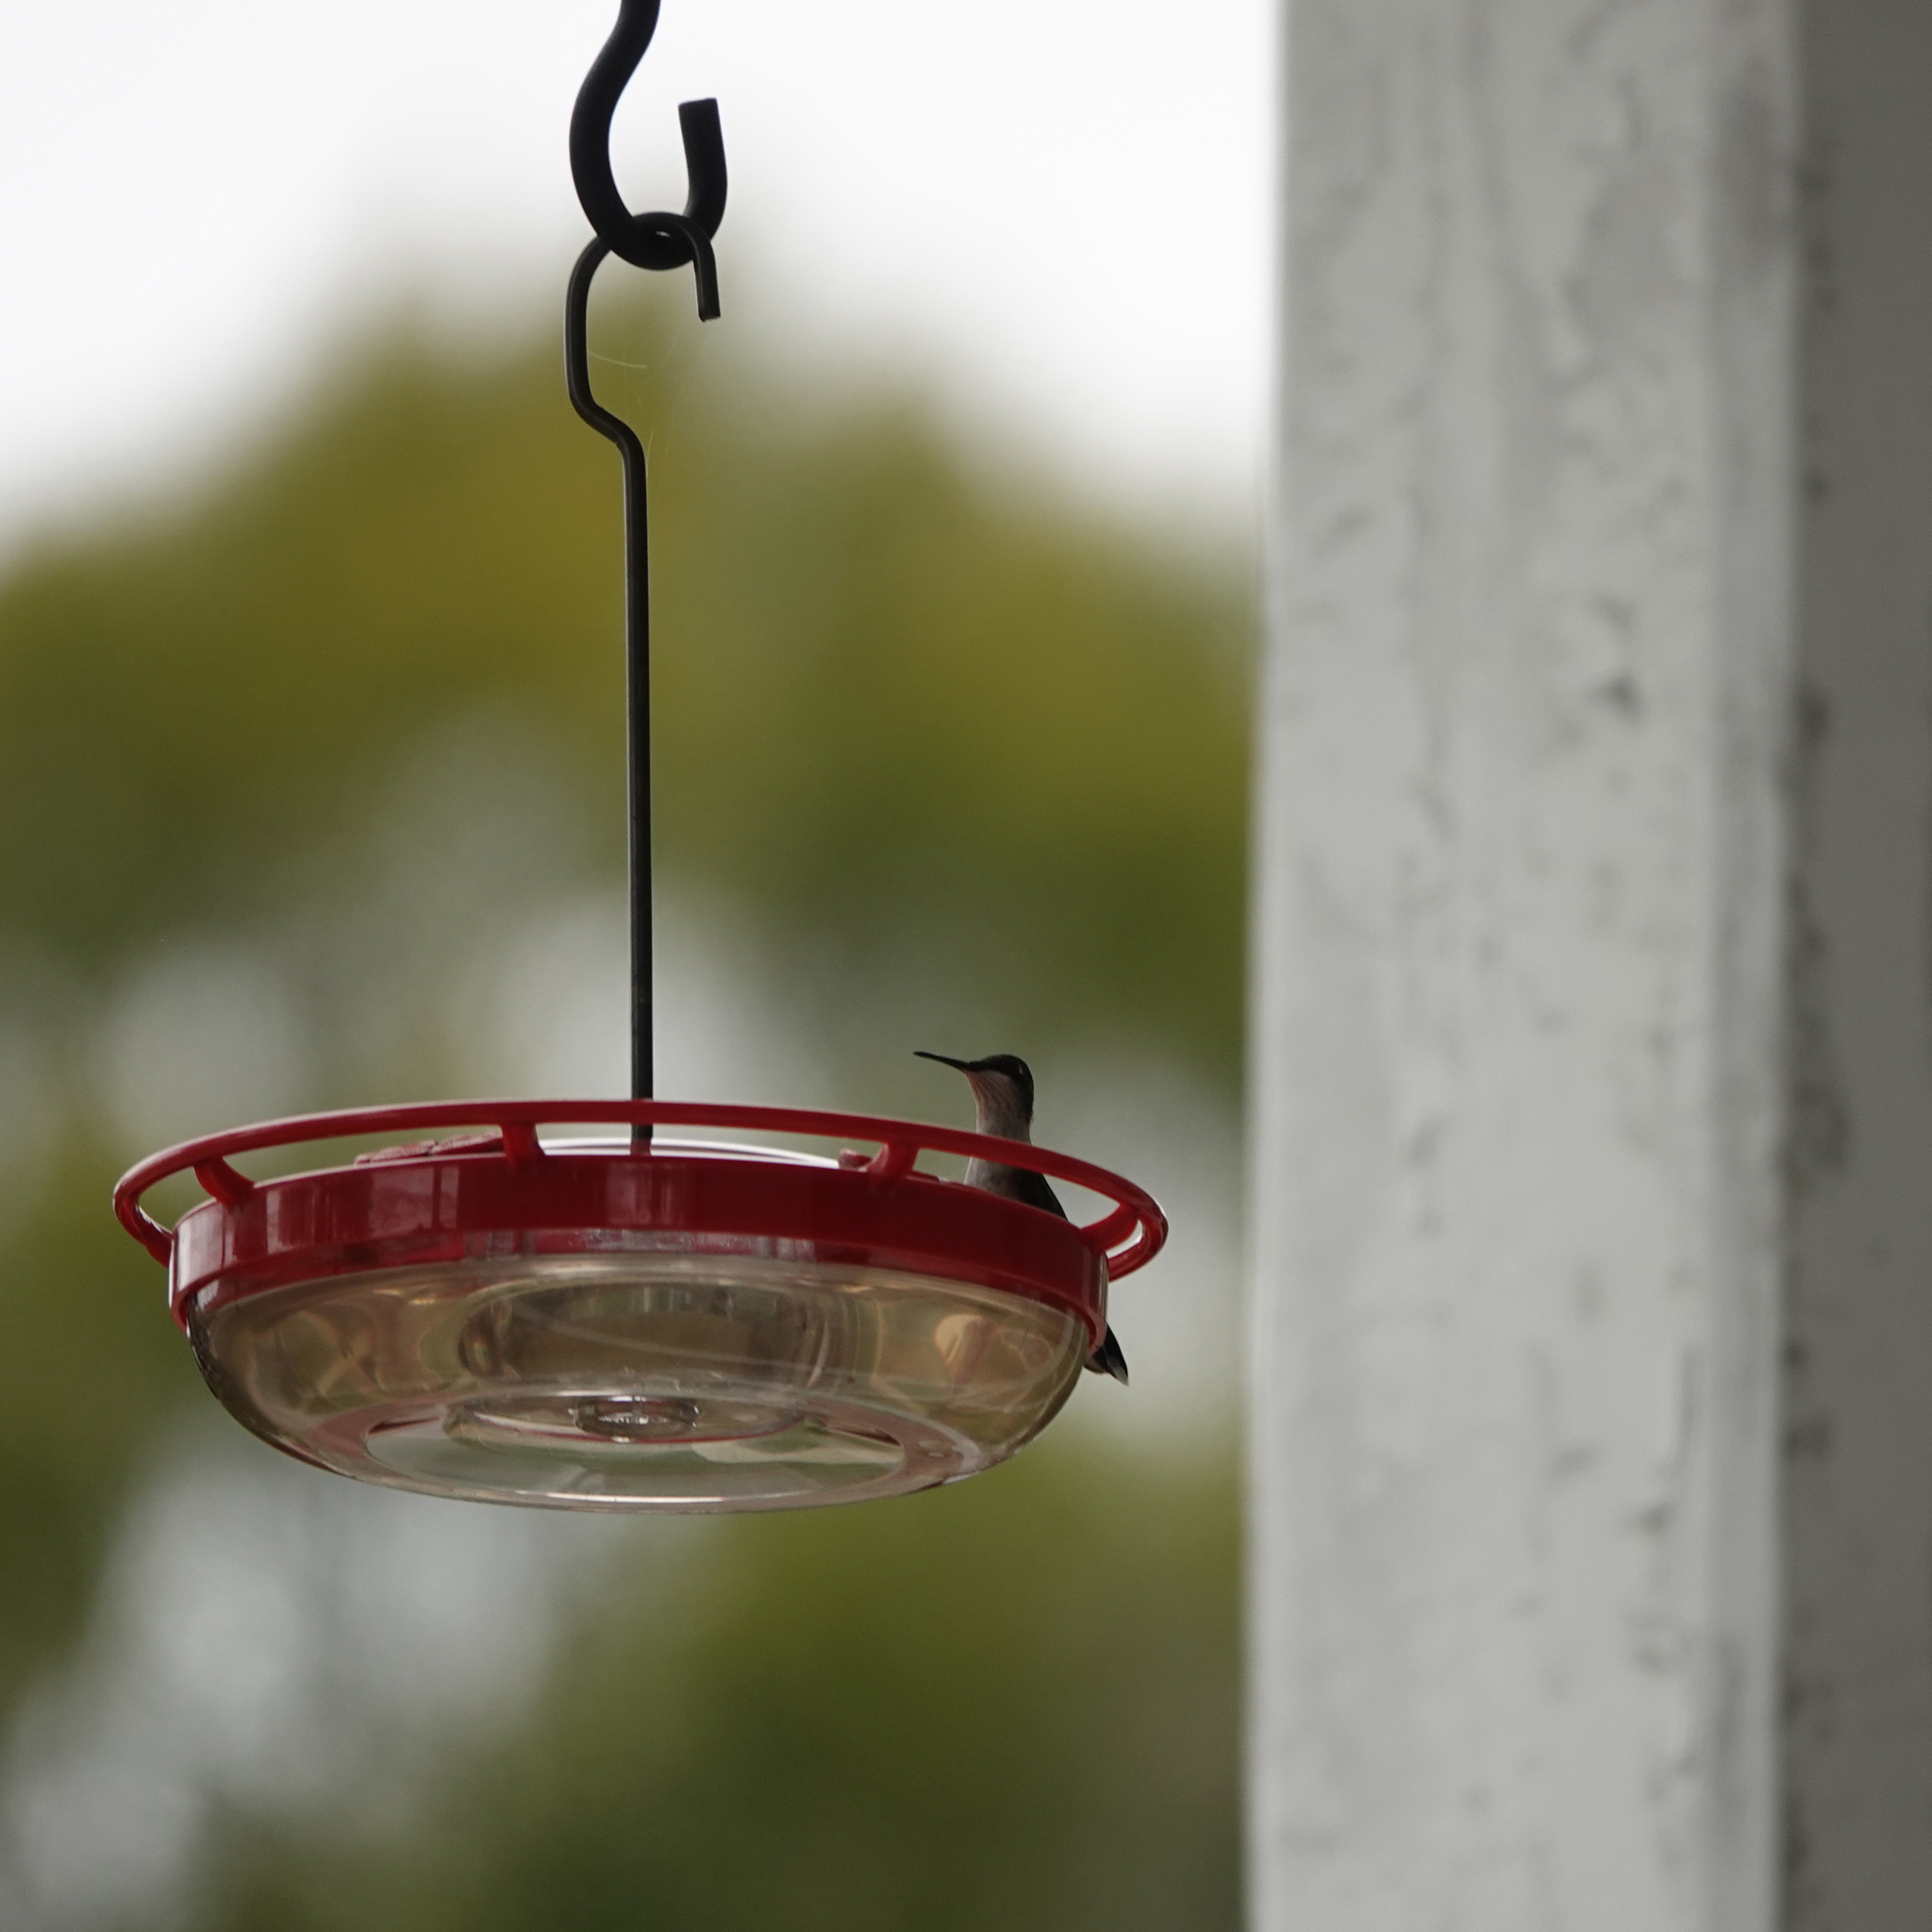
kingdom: Animalia
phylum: Chordata
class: Aves
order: Apodiformes
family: Trochilidae
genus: Archilochus
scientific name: Archilochus colubris
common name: Ruby-throated hummingbird
